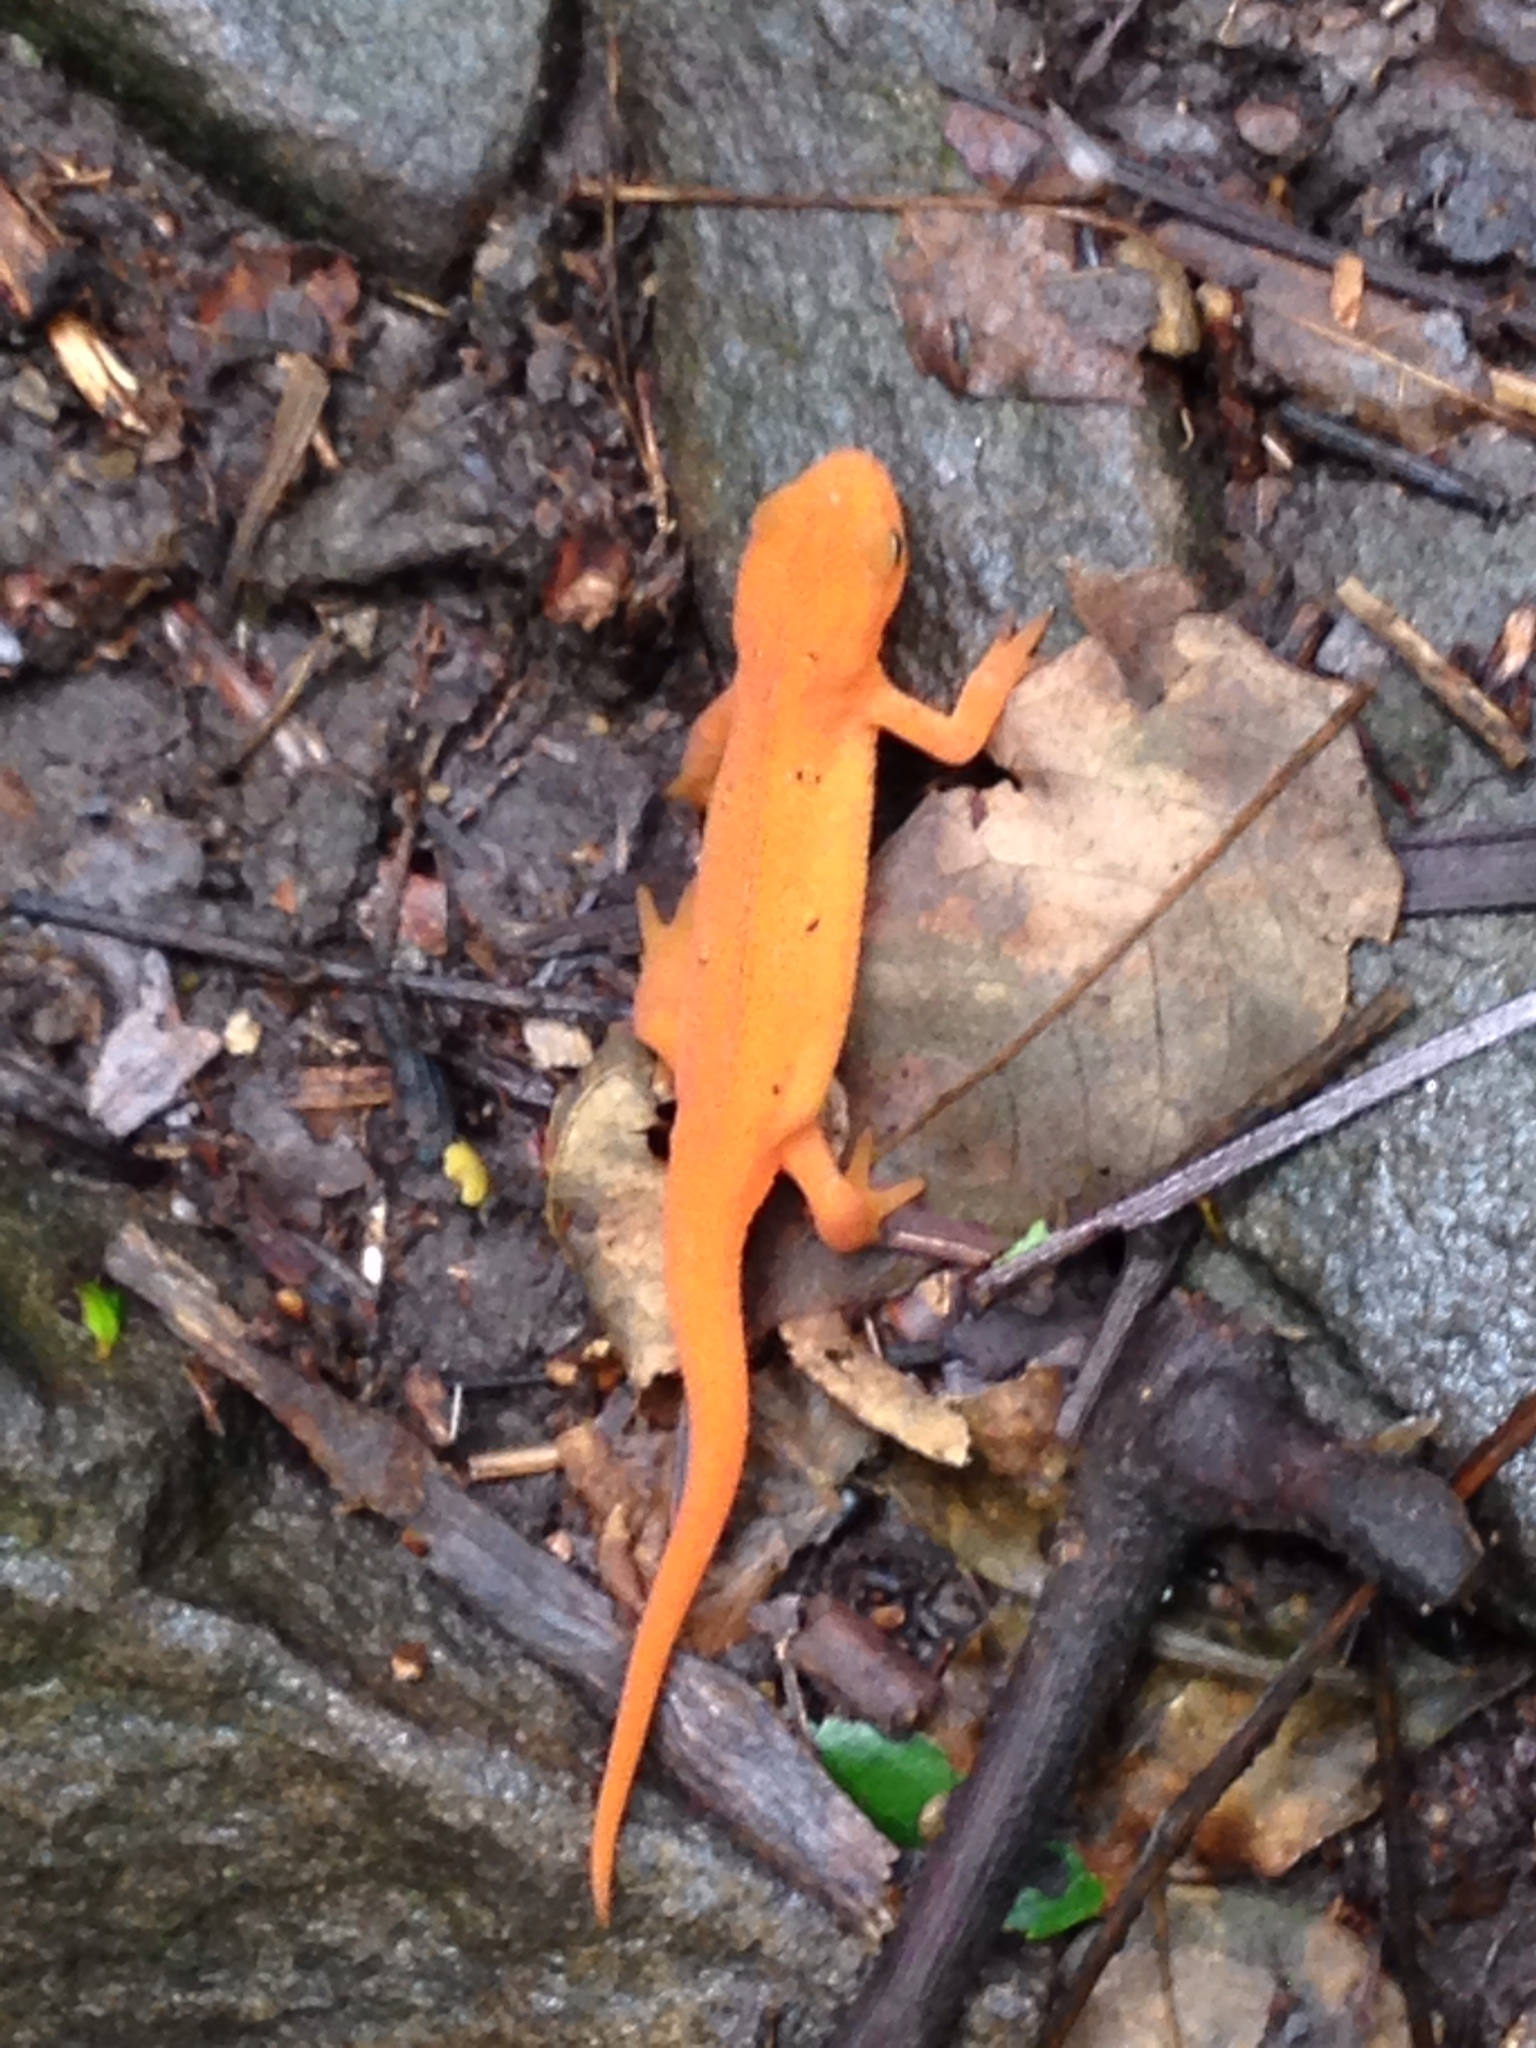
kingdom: Animalia
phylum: Chordata
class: Amphibia
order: Caudata
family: Salamandridae
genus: Notophthalmus
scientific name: Notophthalmus viridescens
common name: Eastern newt
